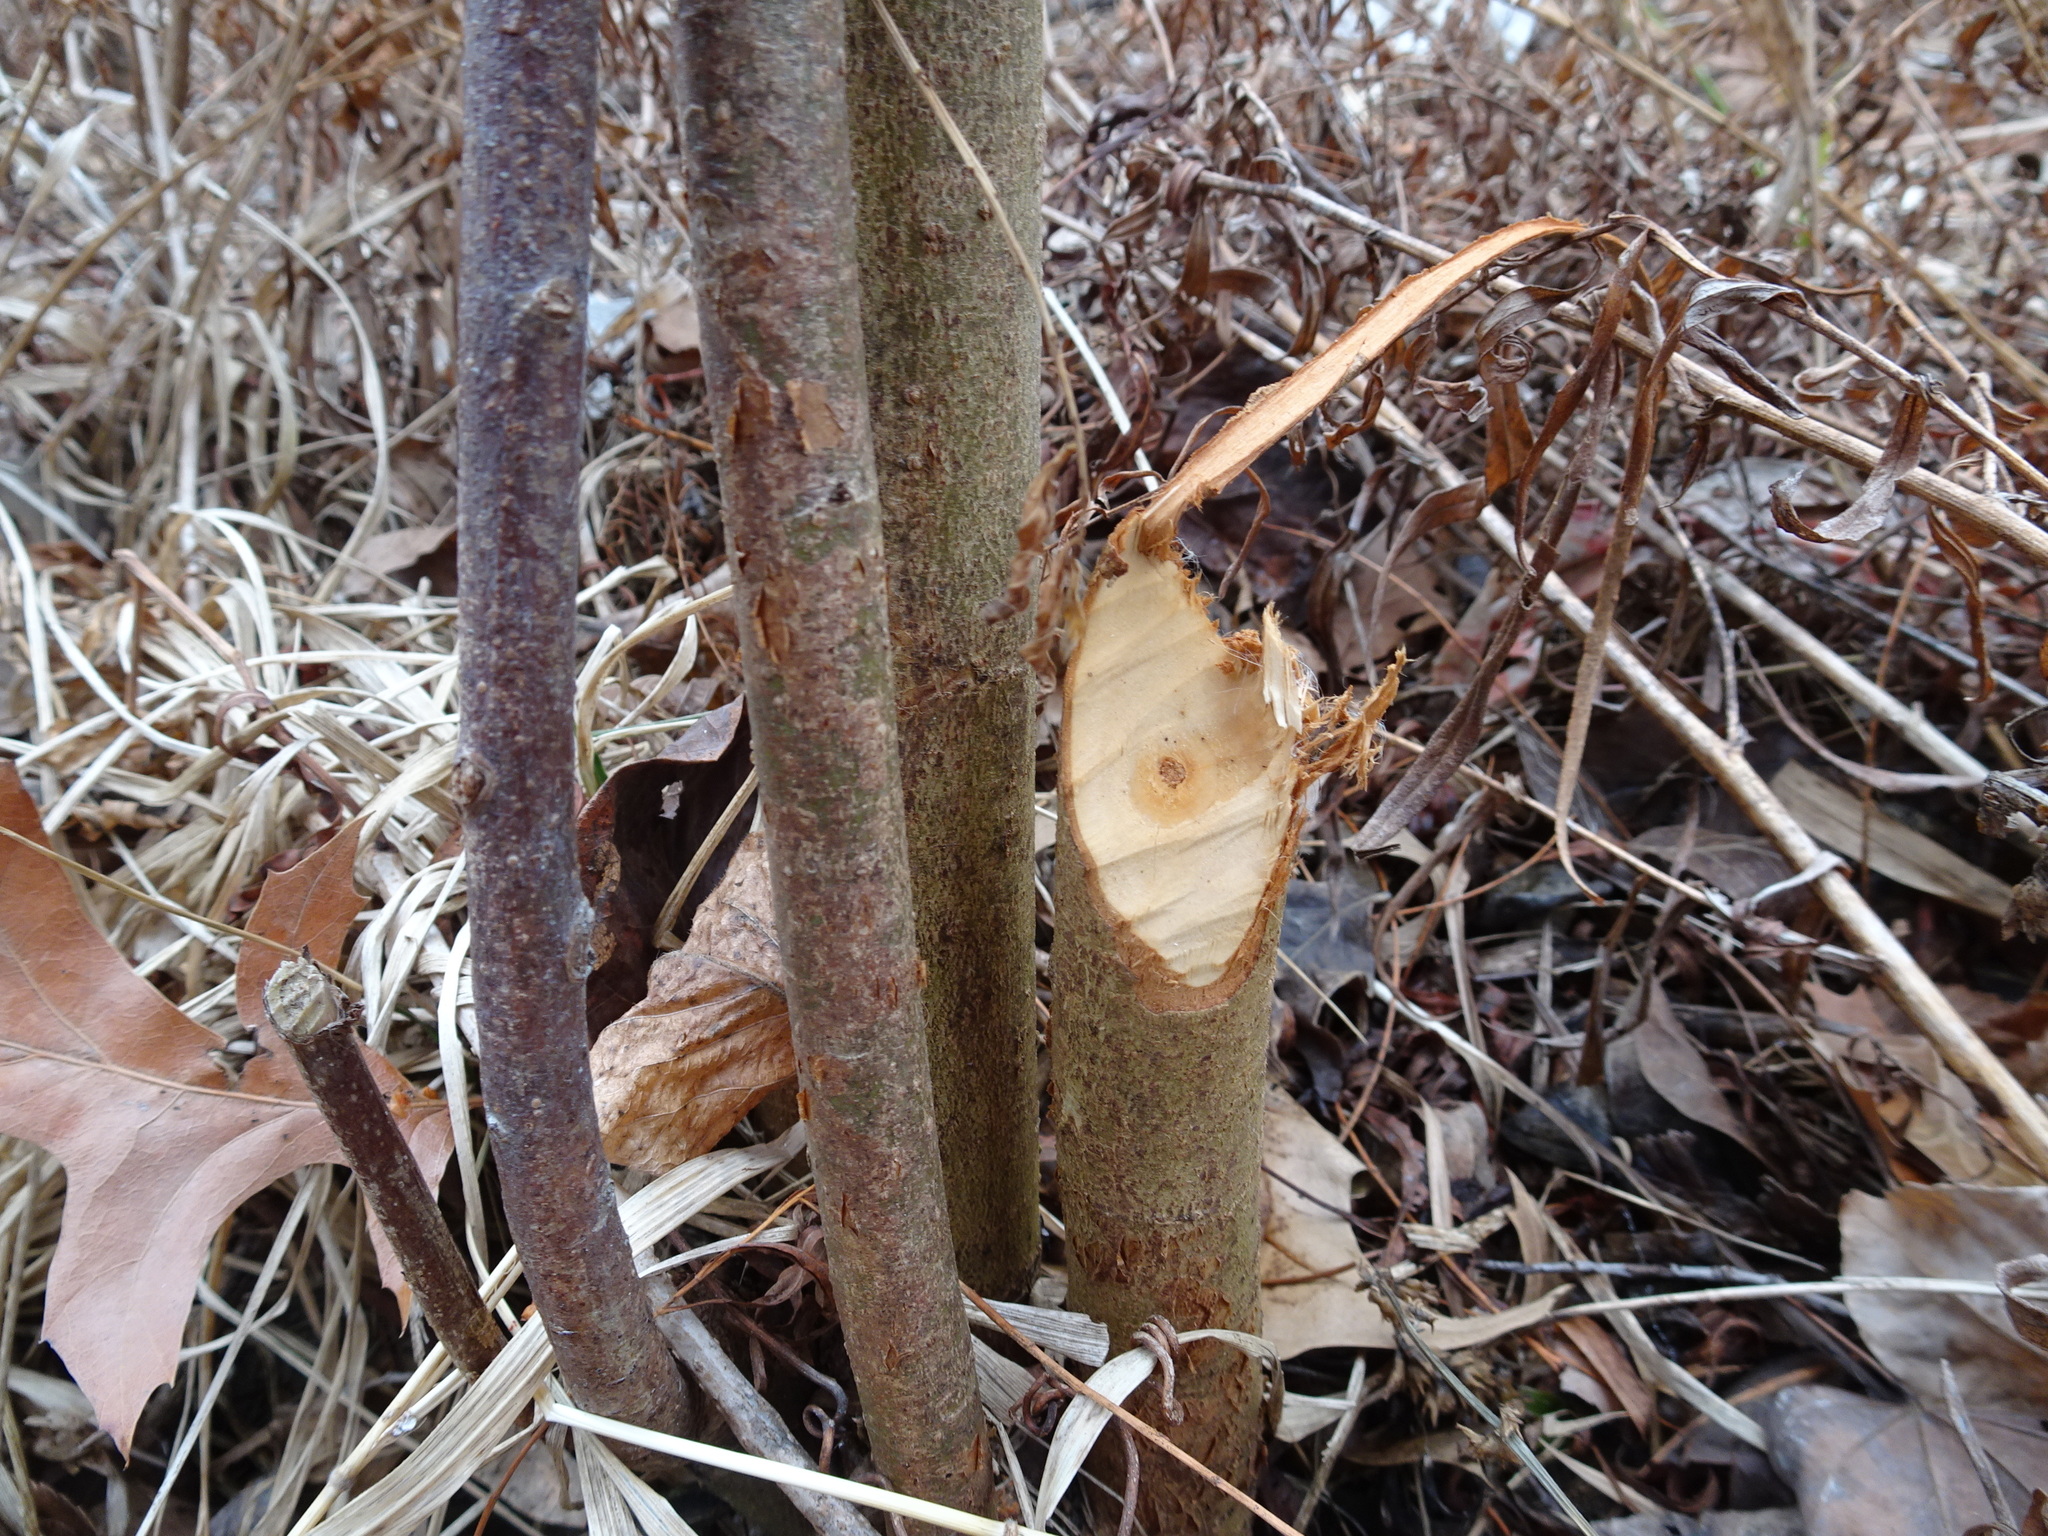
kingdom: Animalia
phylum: Chordata
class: Mammalia
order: Rodentia
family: Castoridae
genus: Castor
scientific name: Castor canadensis
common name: American beaver
